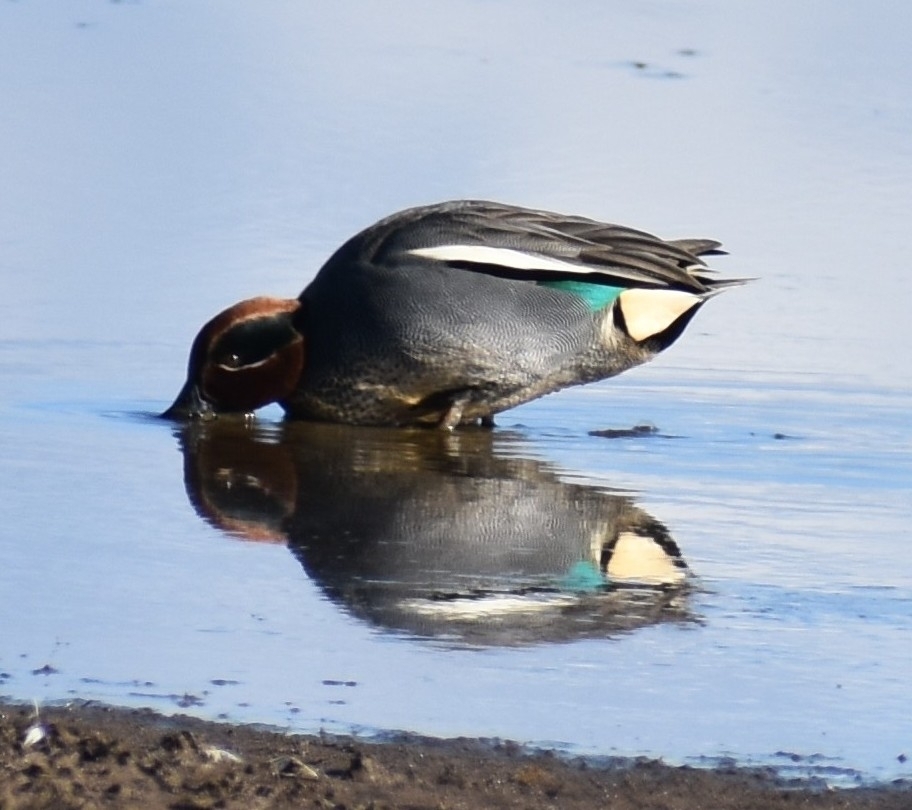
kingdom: Animalia
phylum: Chordata
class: Aves
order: Anseriformes
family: Anatidae
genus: Anas
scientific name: Anas crecca
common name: Eurasian teal
